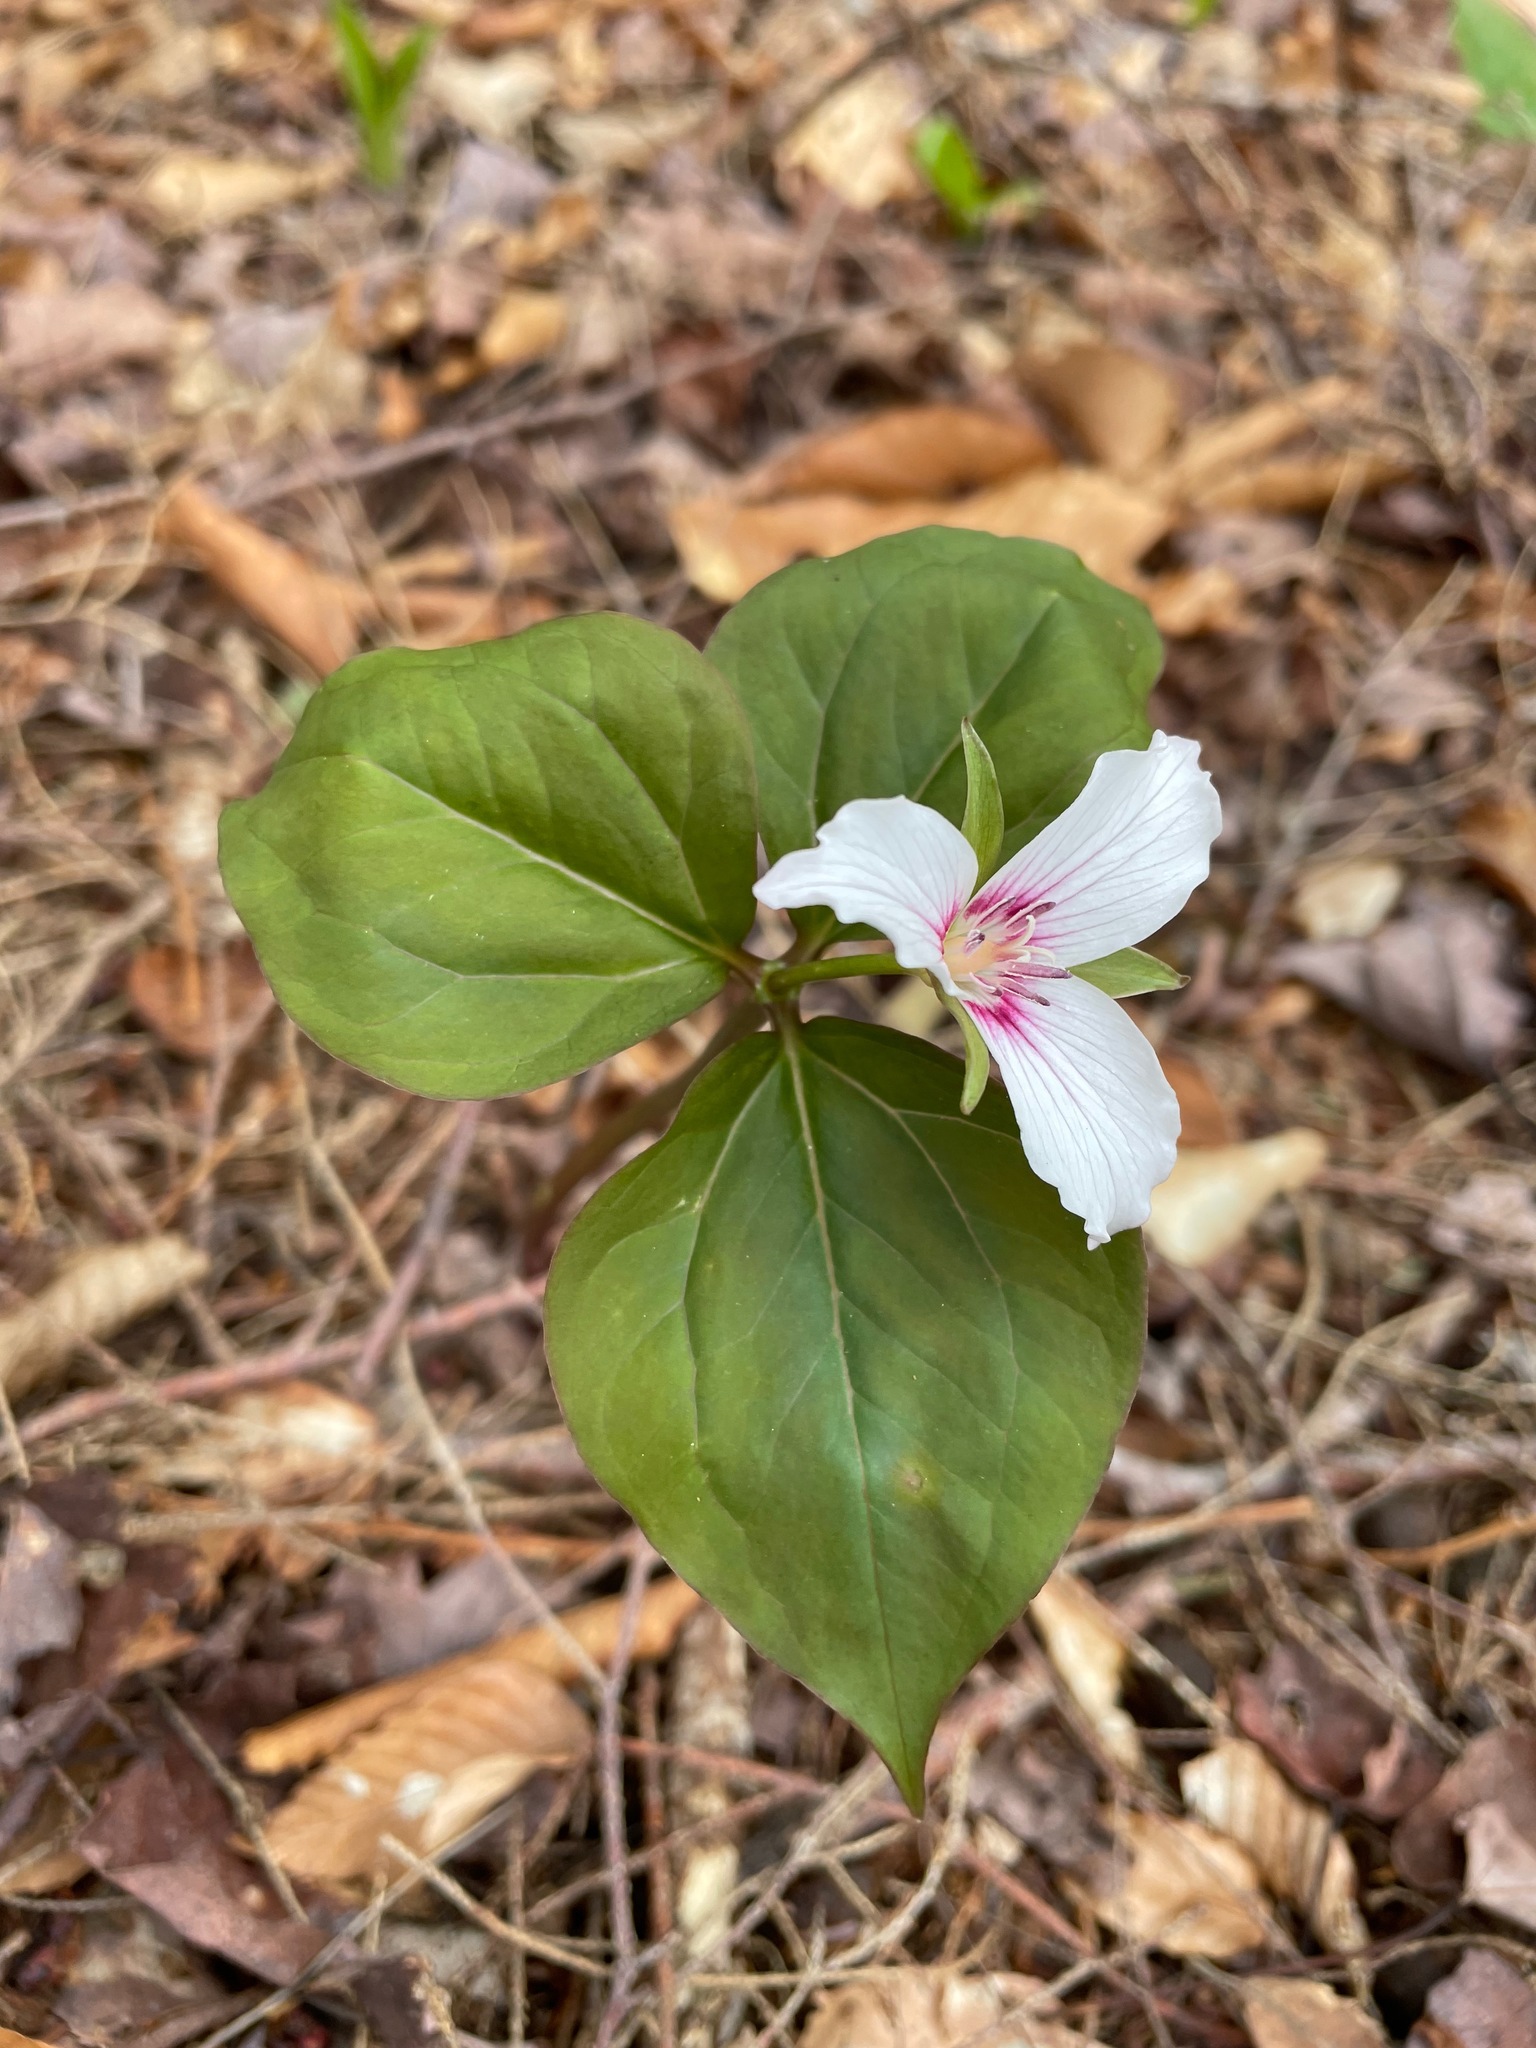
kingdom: Plantae
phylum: Tracheophyta
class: Liliopsida
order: Liliales
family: Melanthiaceae
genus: Trillium
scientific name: Trillium undulatum
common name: Paint trillium
